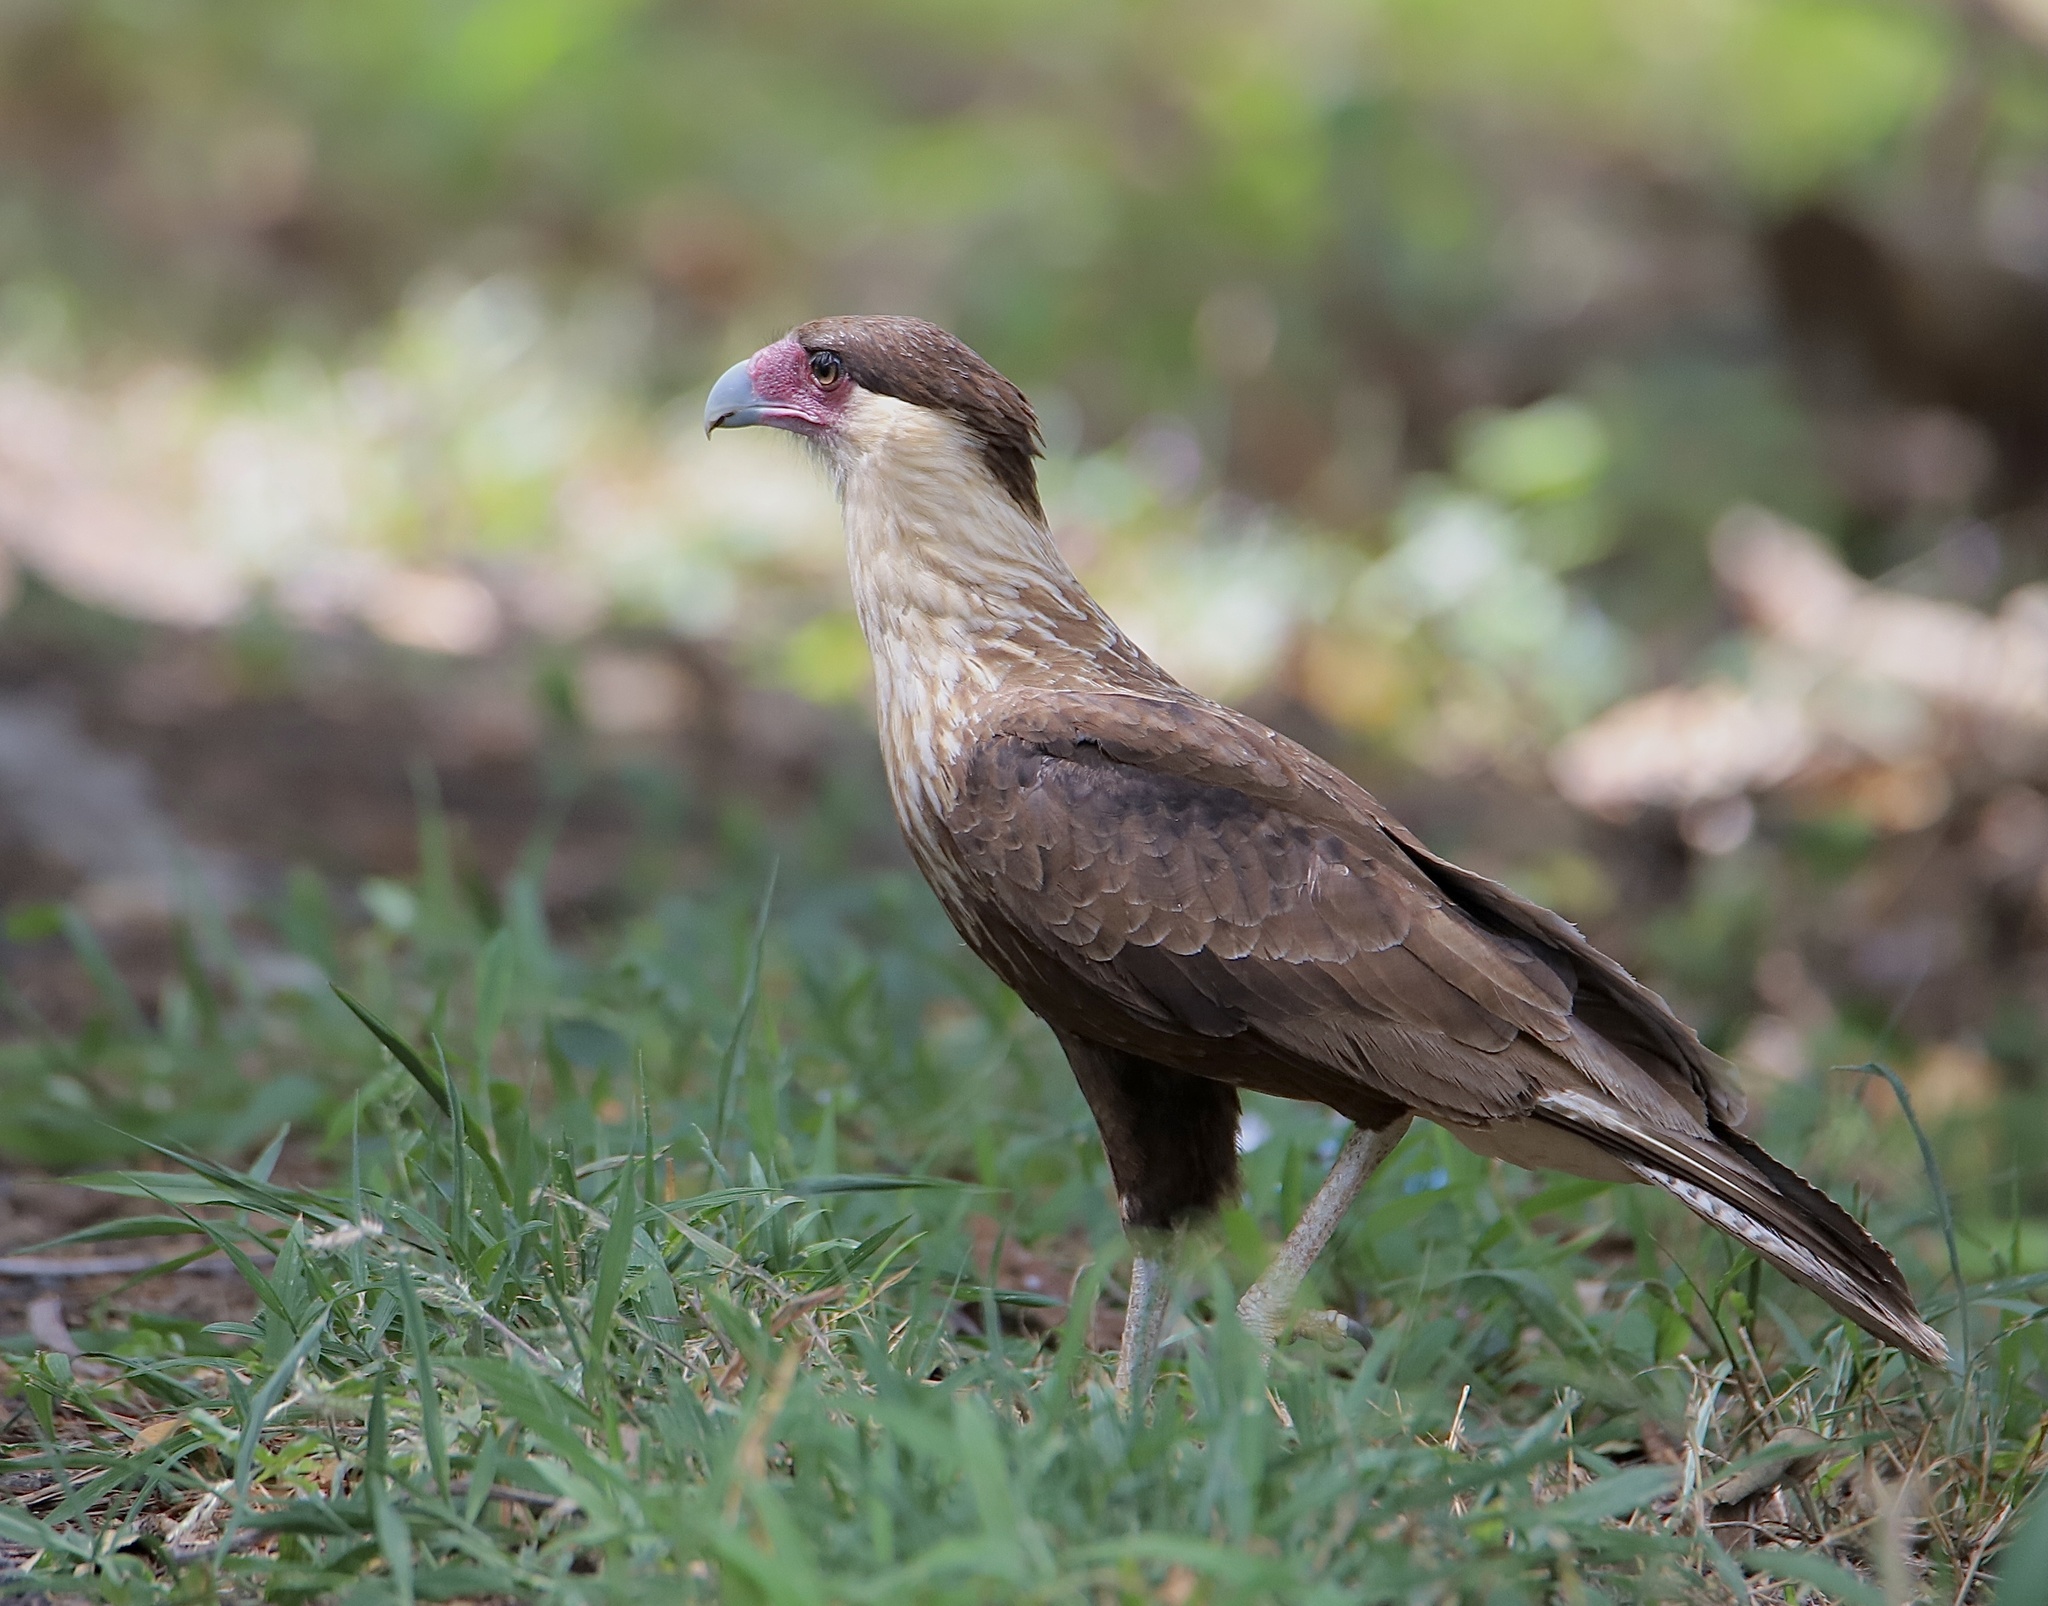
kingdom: Animalia
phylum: Chordata
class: Aves
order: Falconiformes
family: Falconidae
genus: Caracara
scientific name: Caracara plancus
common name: Southern caracara
